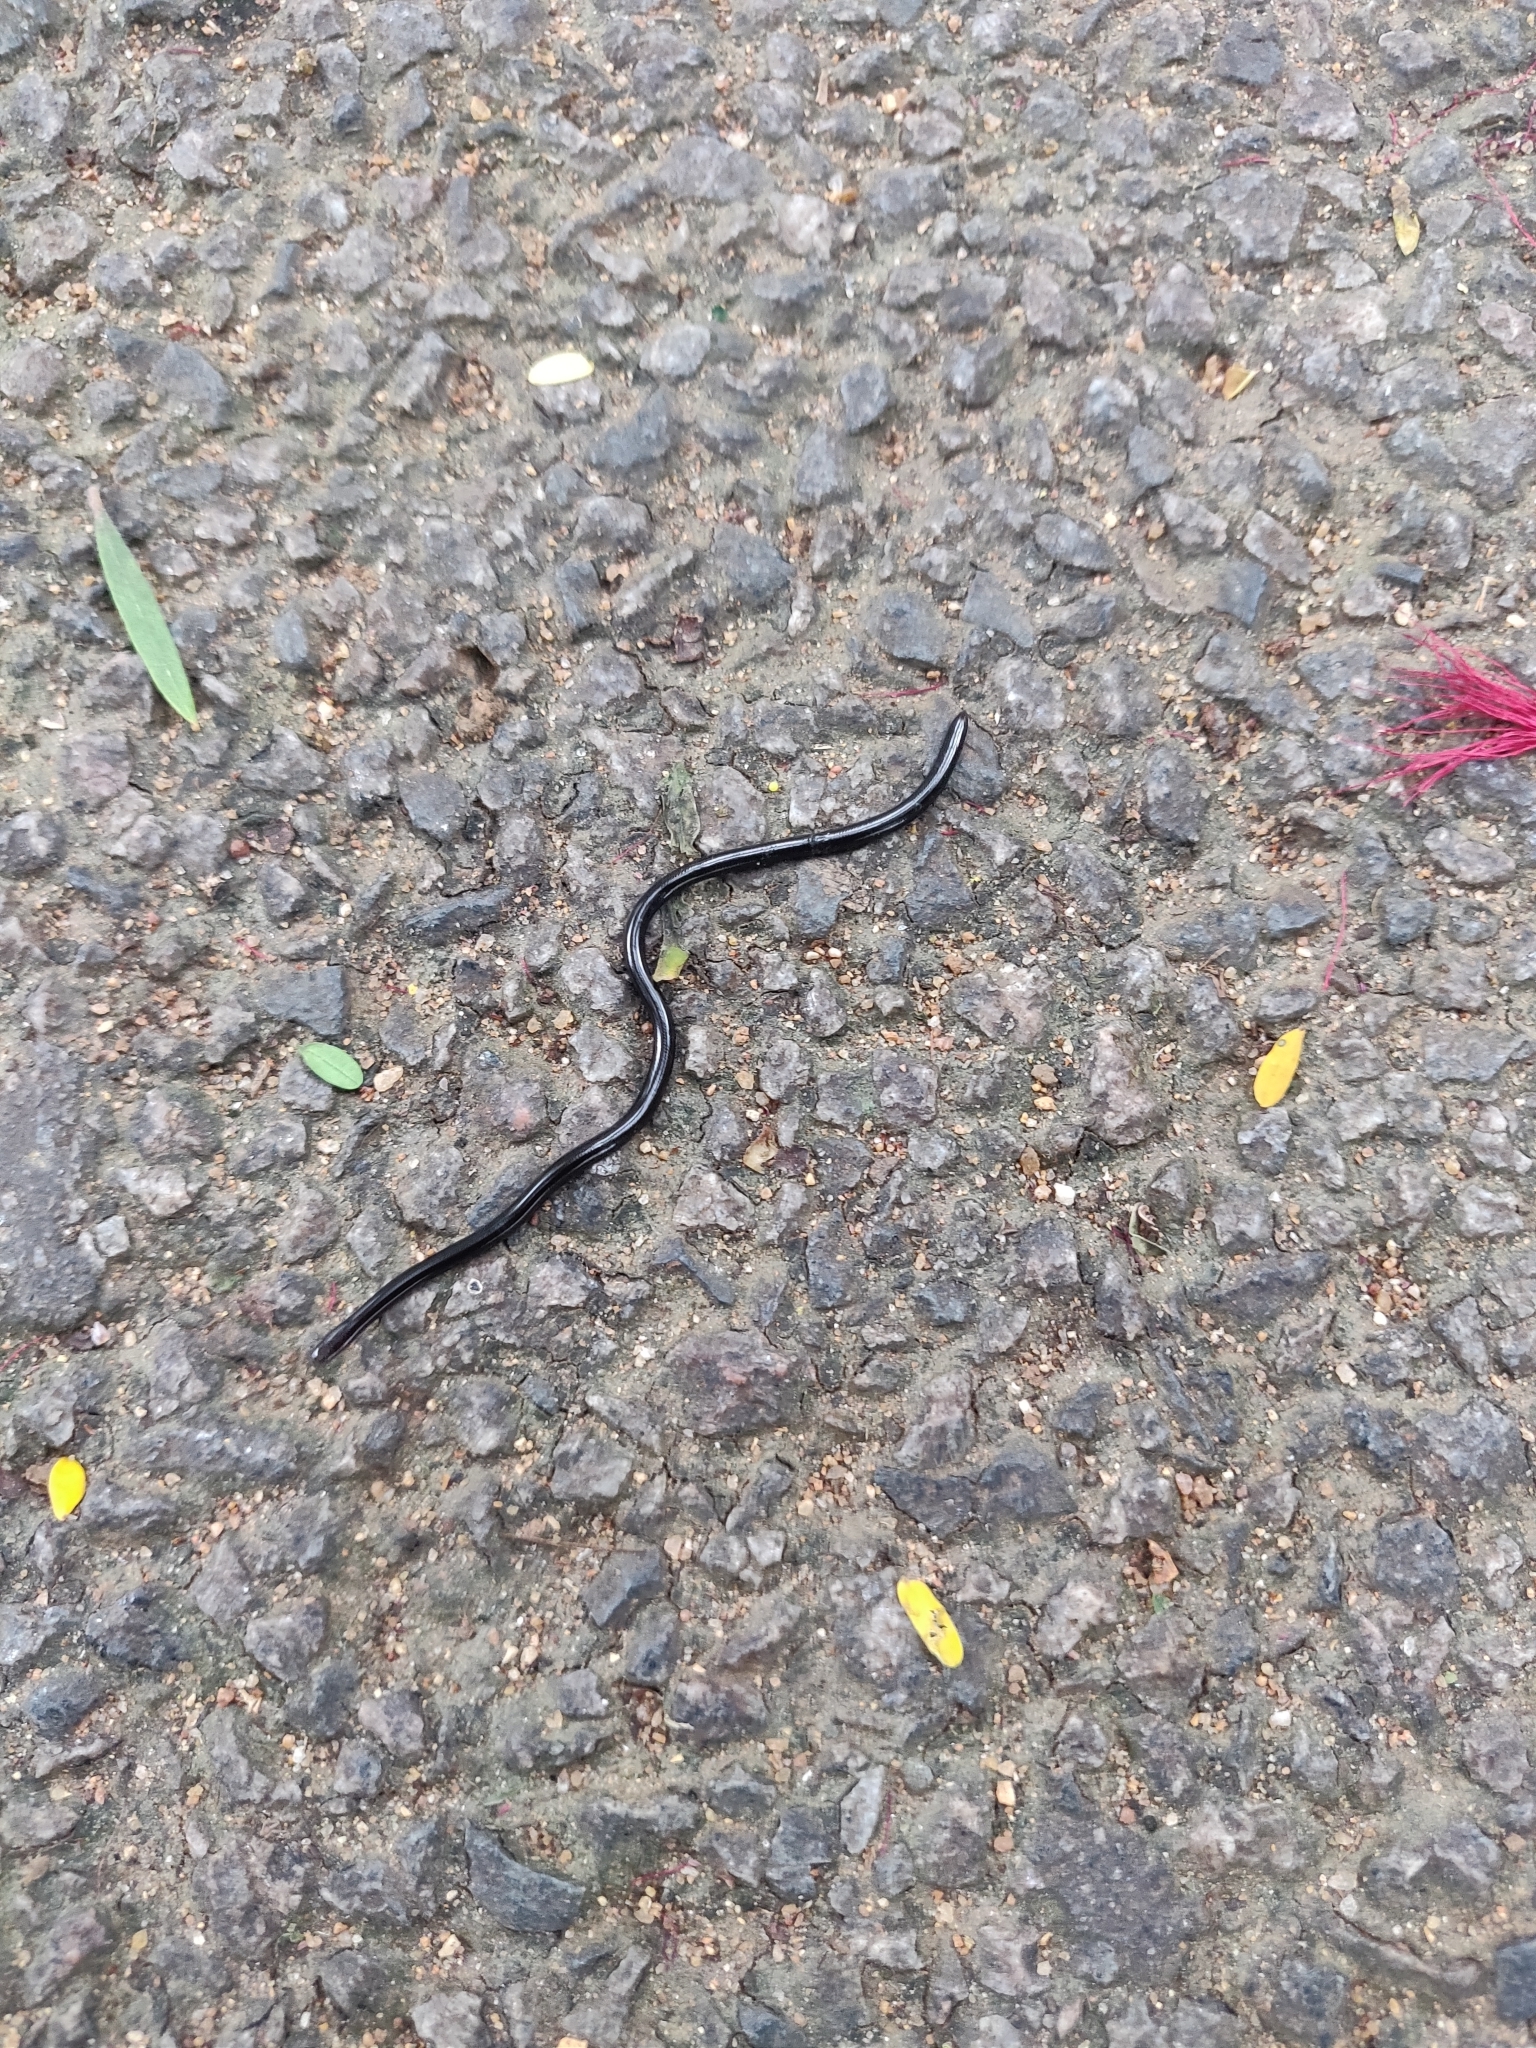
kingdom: Animalia
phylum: Chordata
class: Squamata
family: Typhlopidae
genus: Indotyphlops
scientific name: Indotyphlops braminus
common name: Brahminy blindsnake
